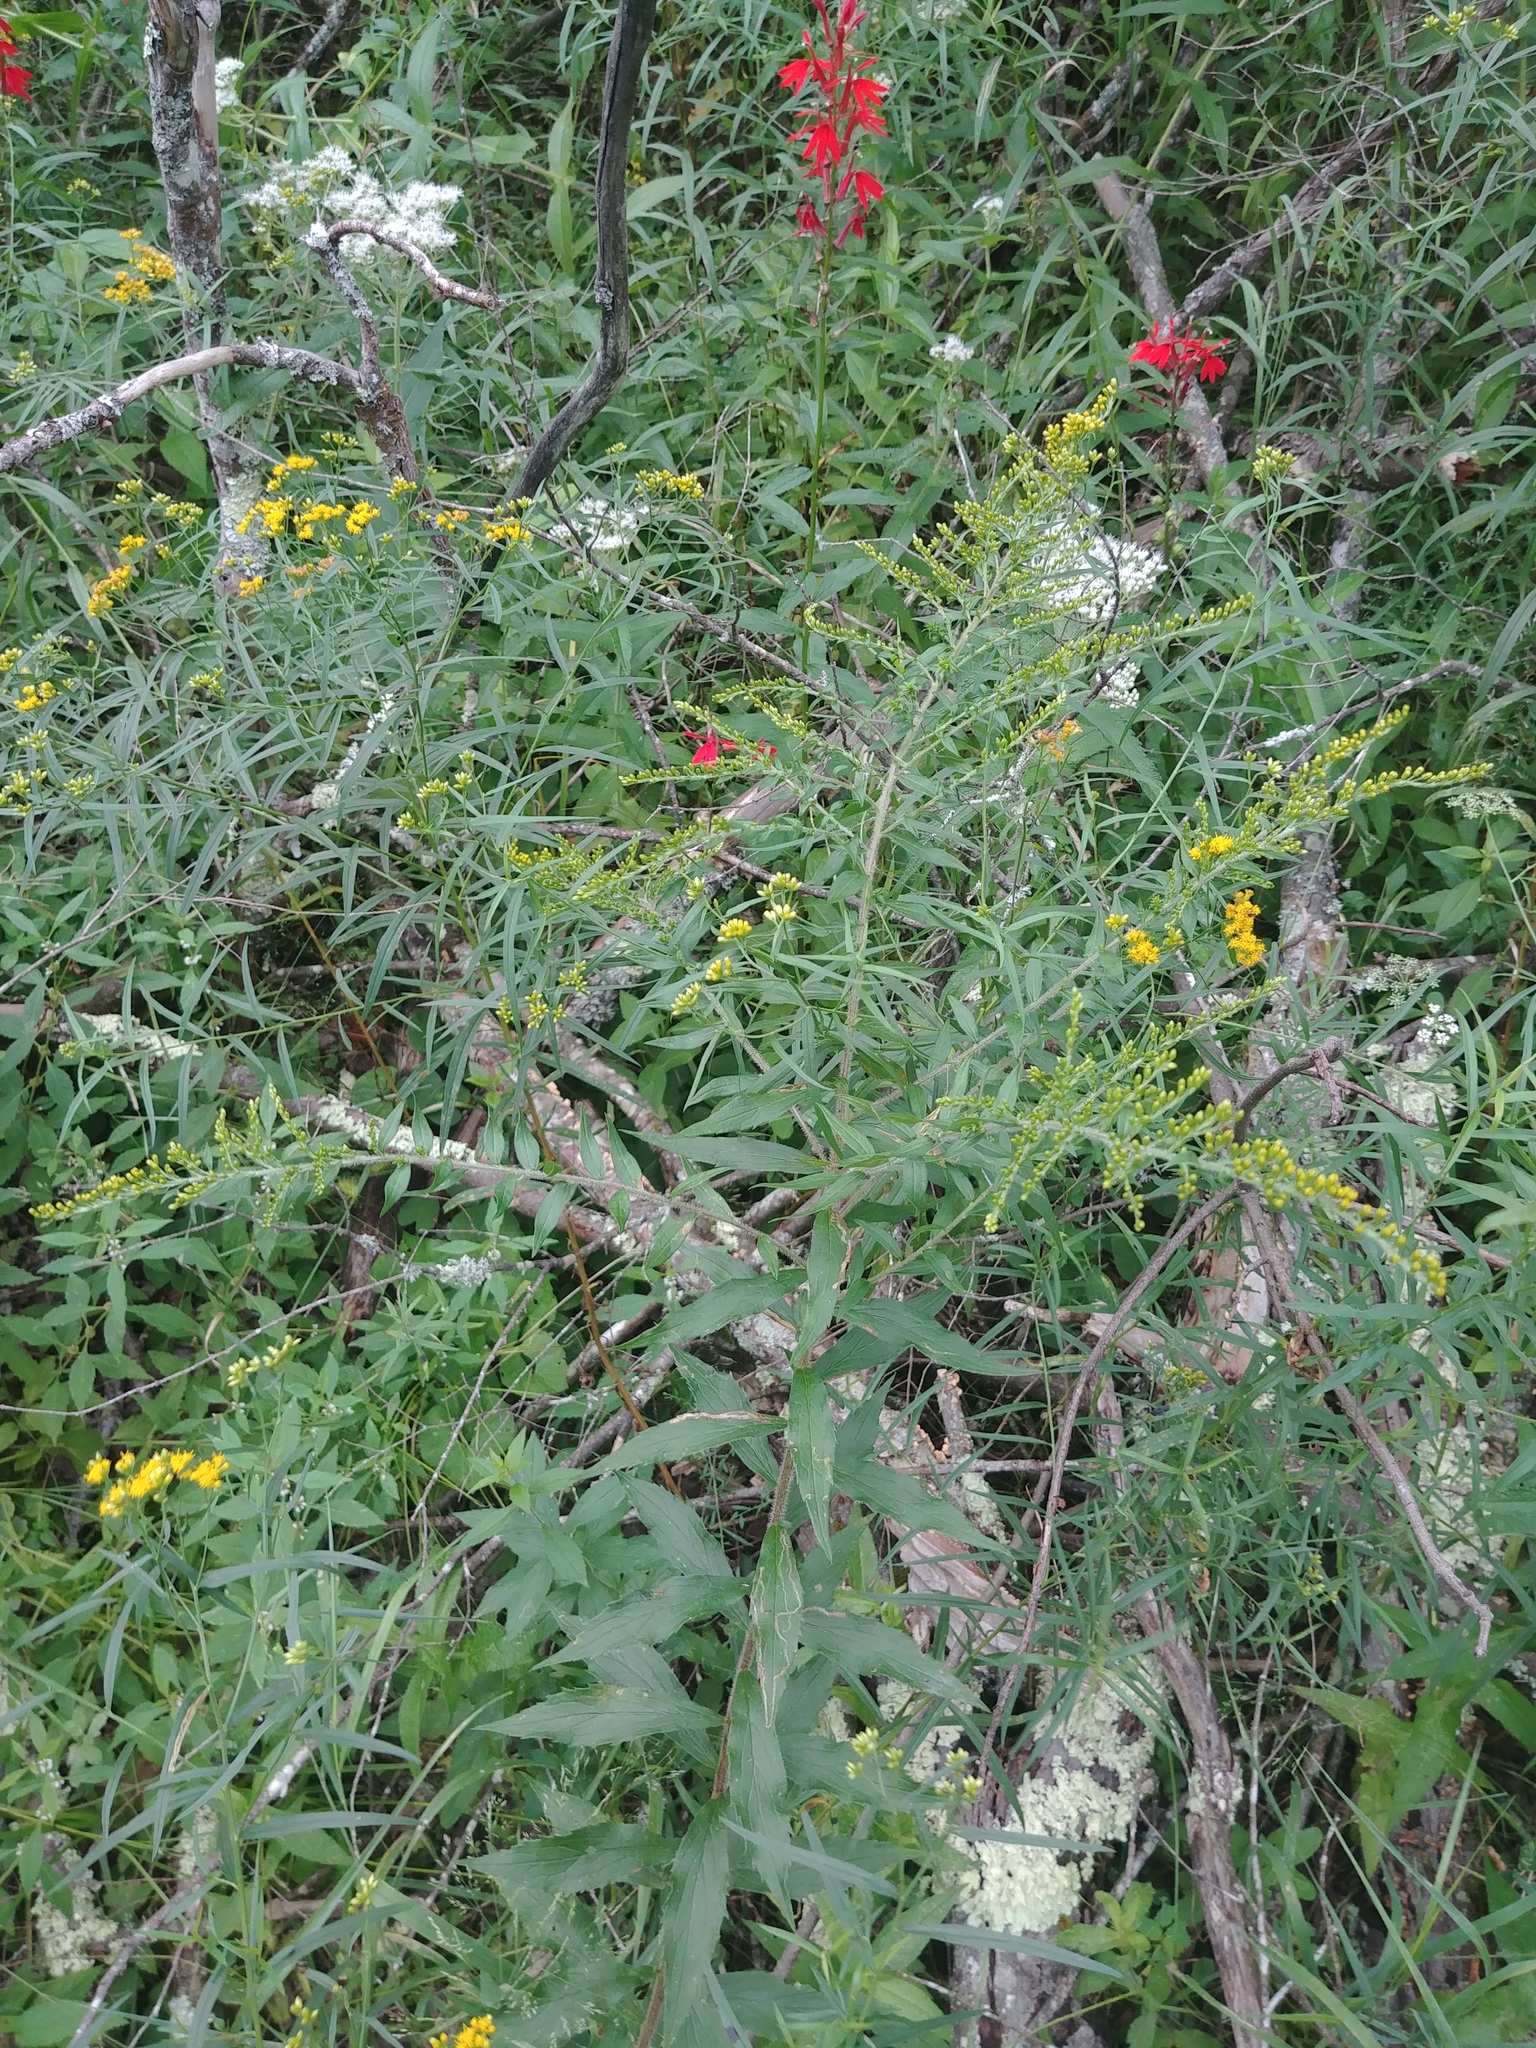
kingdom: Plantae
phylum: Tracheophyta
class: Magnoliopsida
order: Asterales
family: Asteraceae
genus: Solidago
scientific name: Solidago rugosa
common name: Rough-stemmed goldenrod
